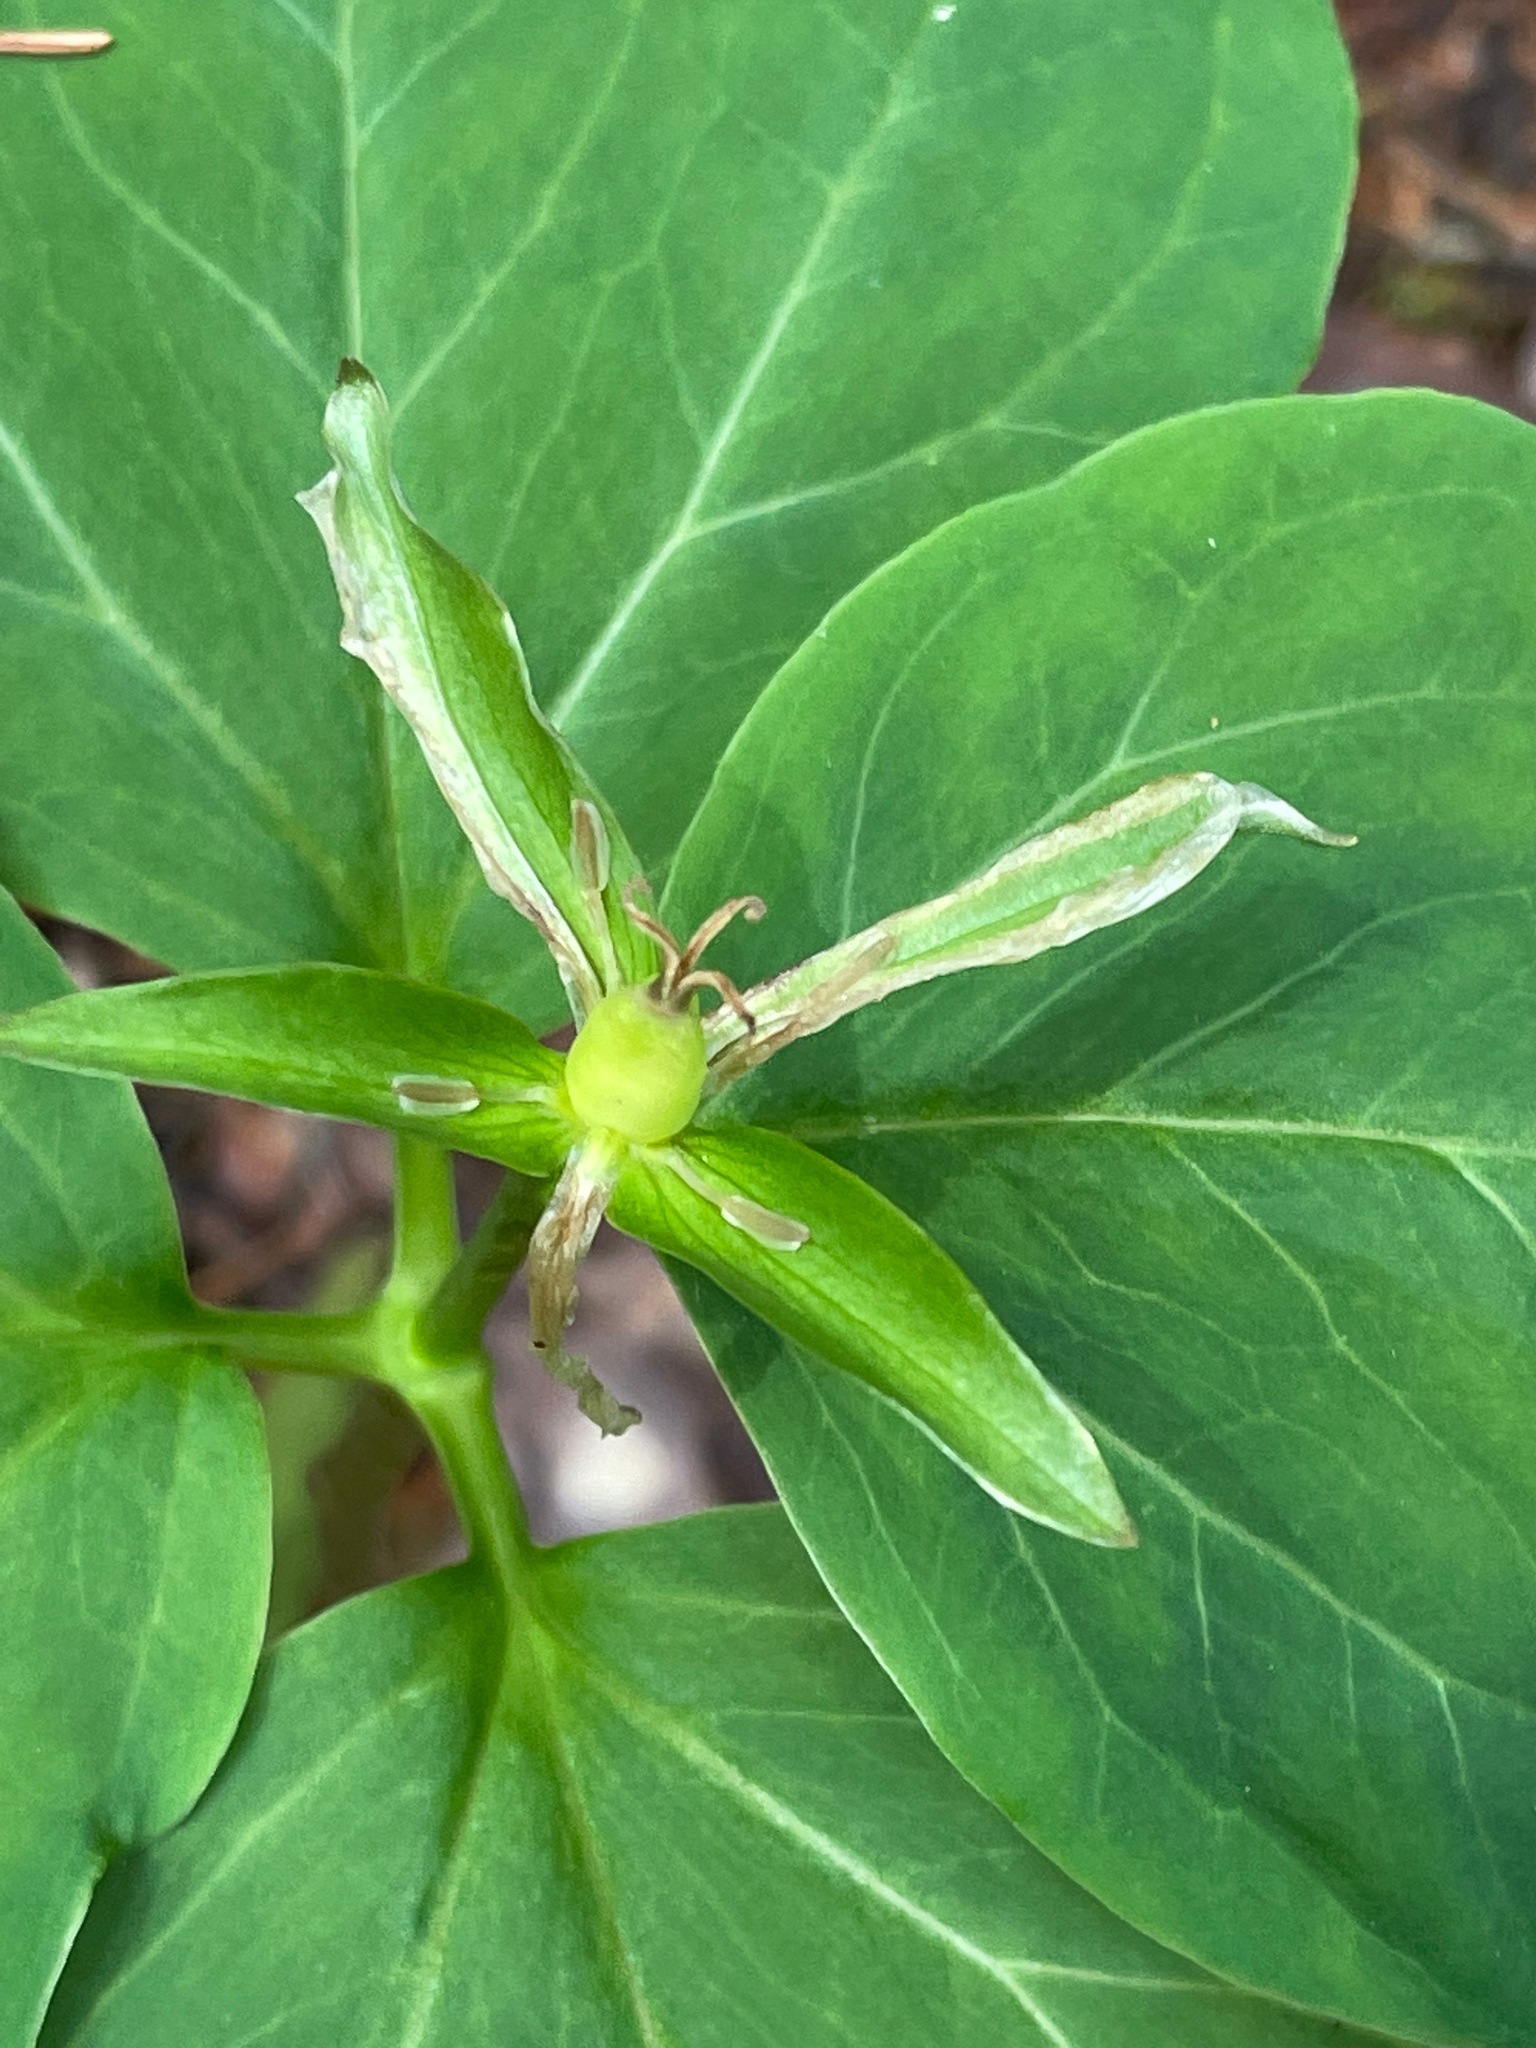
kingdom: Plantae
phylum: Tracheophyta
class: Liliopsida
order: Liliales
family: Melanthiaceae
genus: Trillium
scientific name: Trillium undulatum
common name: Paint trillium
